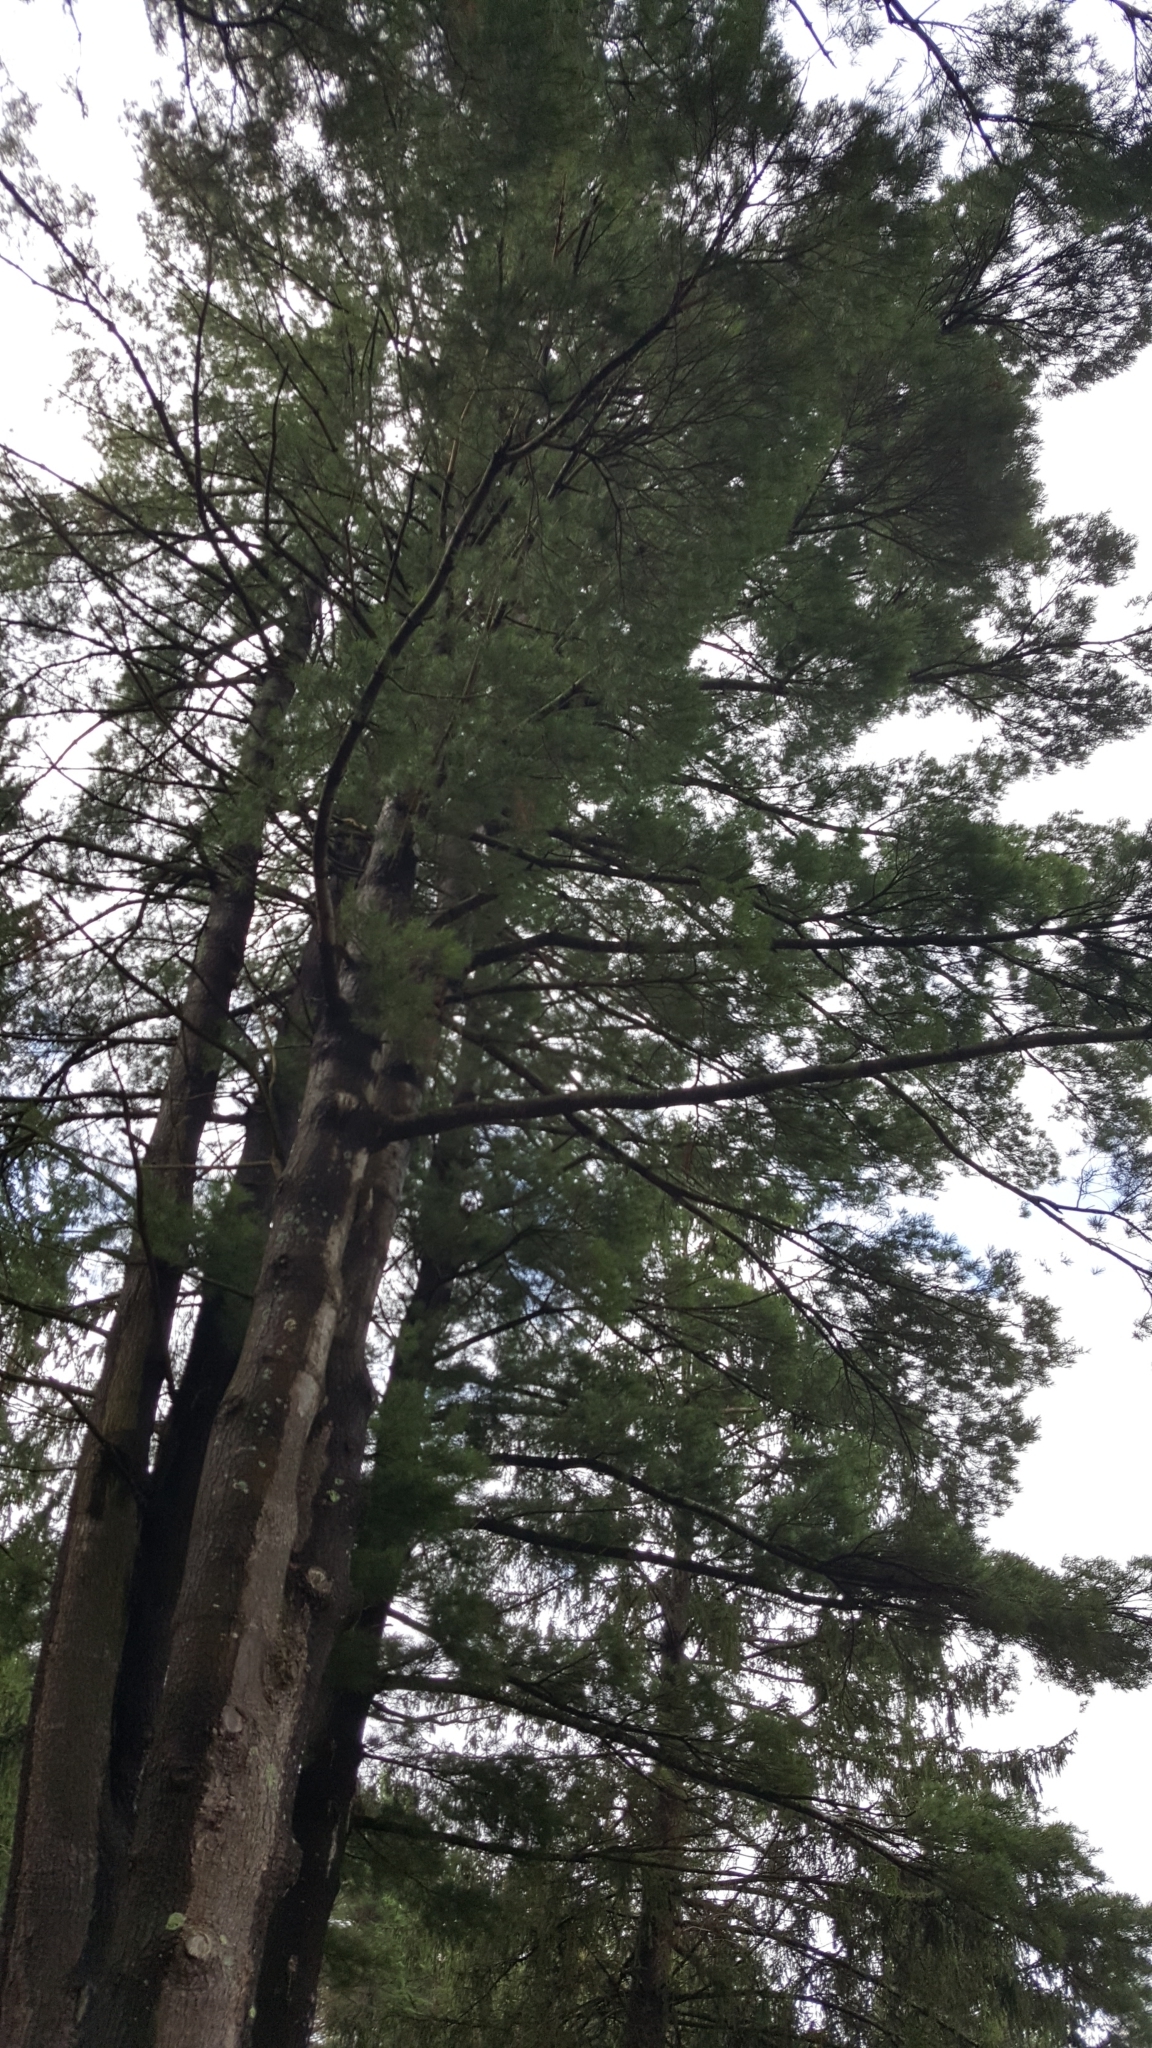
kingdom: Plantae
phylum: Tracheophyta
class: Pinopsida
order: Pinales
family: Pinaceae
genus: Pinus
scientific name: Pinus strobus
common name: Weymouth pine
